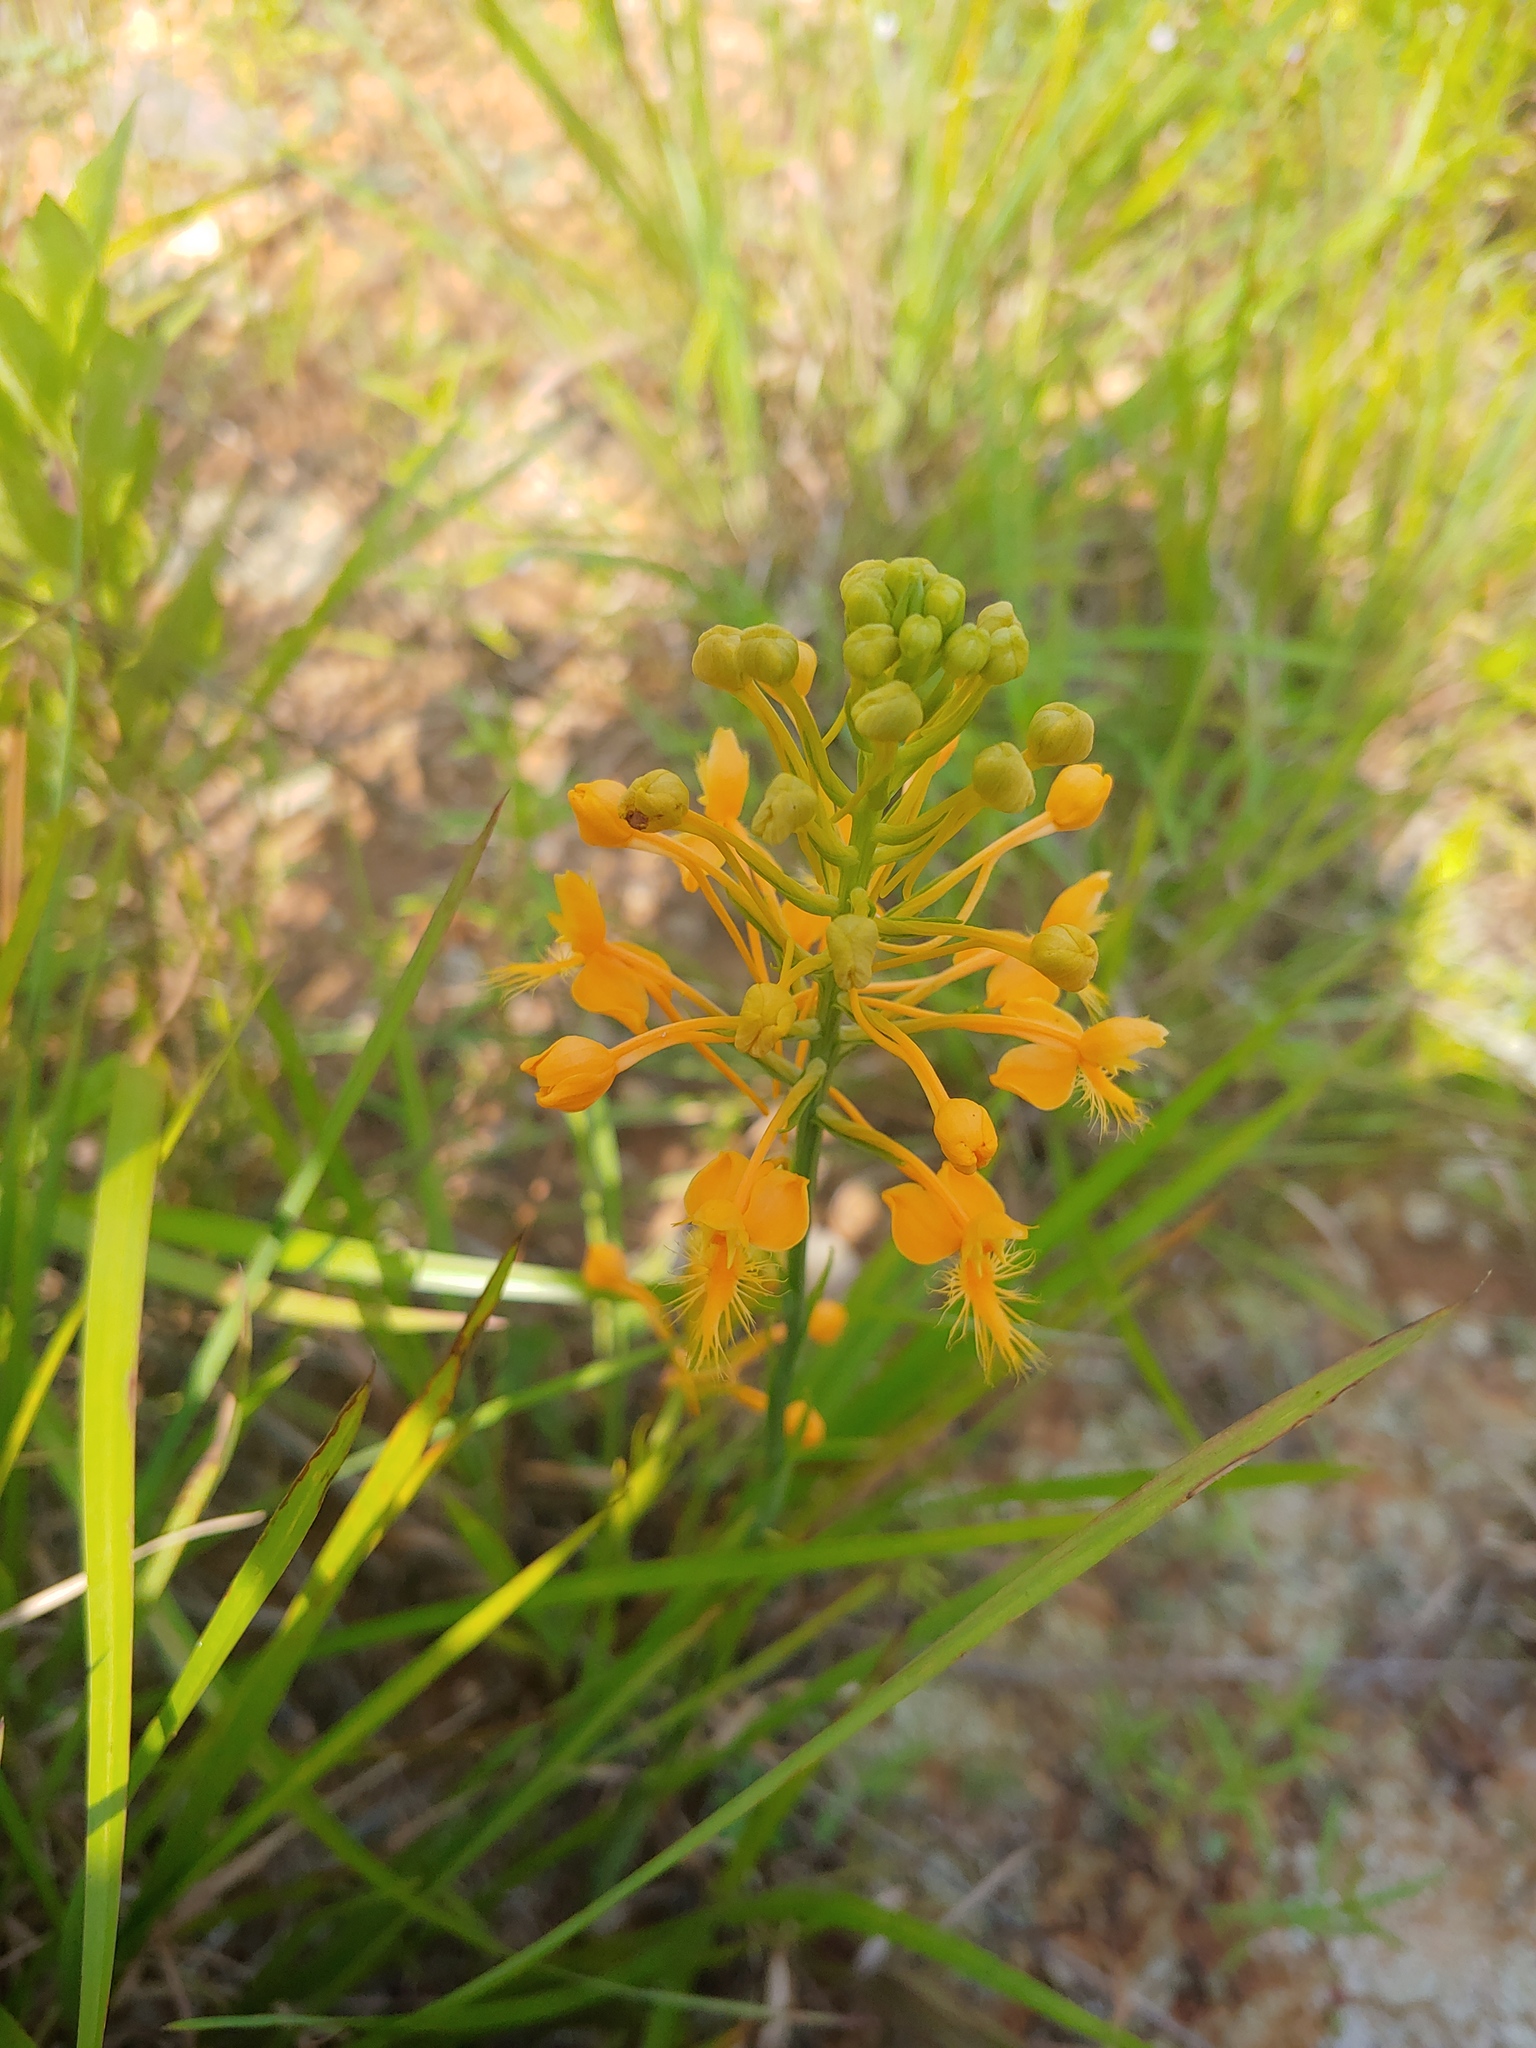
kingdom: Plantae
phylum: Tracheophyta
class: Liliopsida
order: Asparagales
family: Orchidaceae
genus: Platanthera
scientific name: Platanthera ciliaris
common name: Yellow fringed orchid
